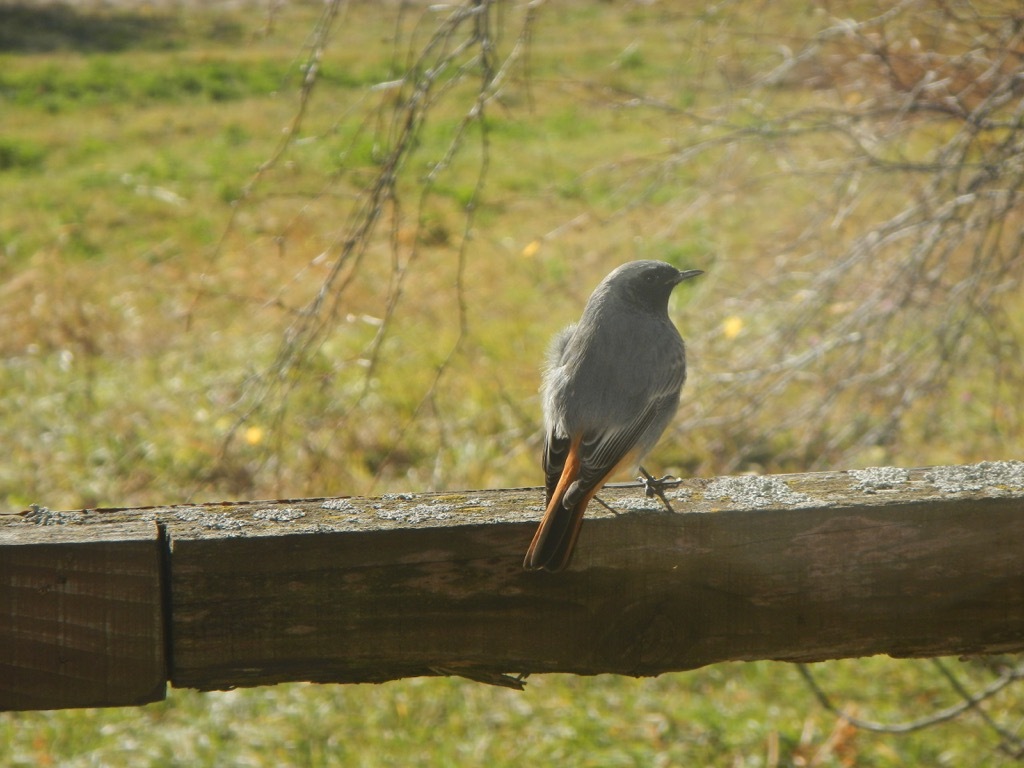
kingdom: Animalia
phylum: Chordata
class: Aves
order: Passeriformes
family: Muscicapidae
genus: Phoenicurus
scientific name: Phoenicurus ochruros
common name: Black redstart
